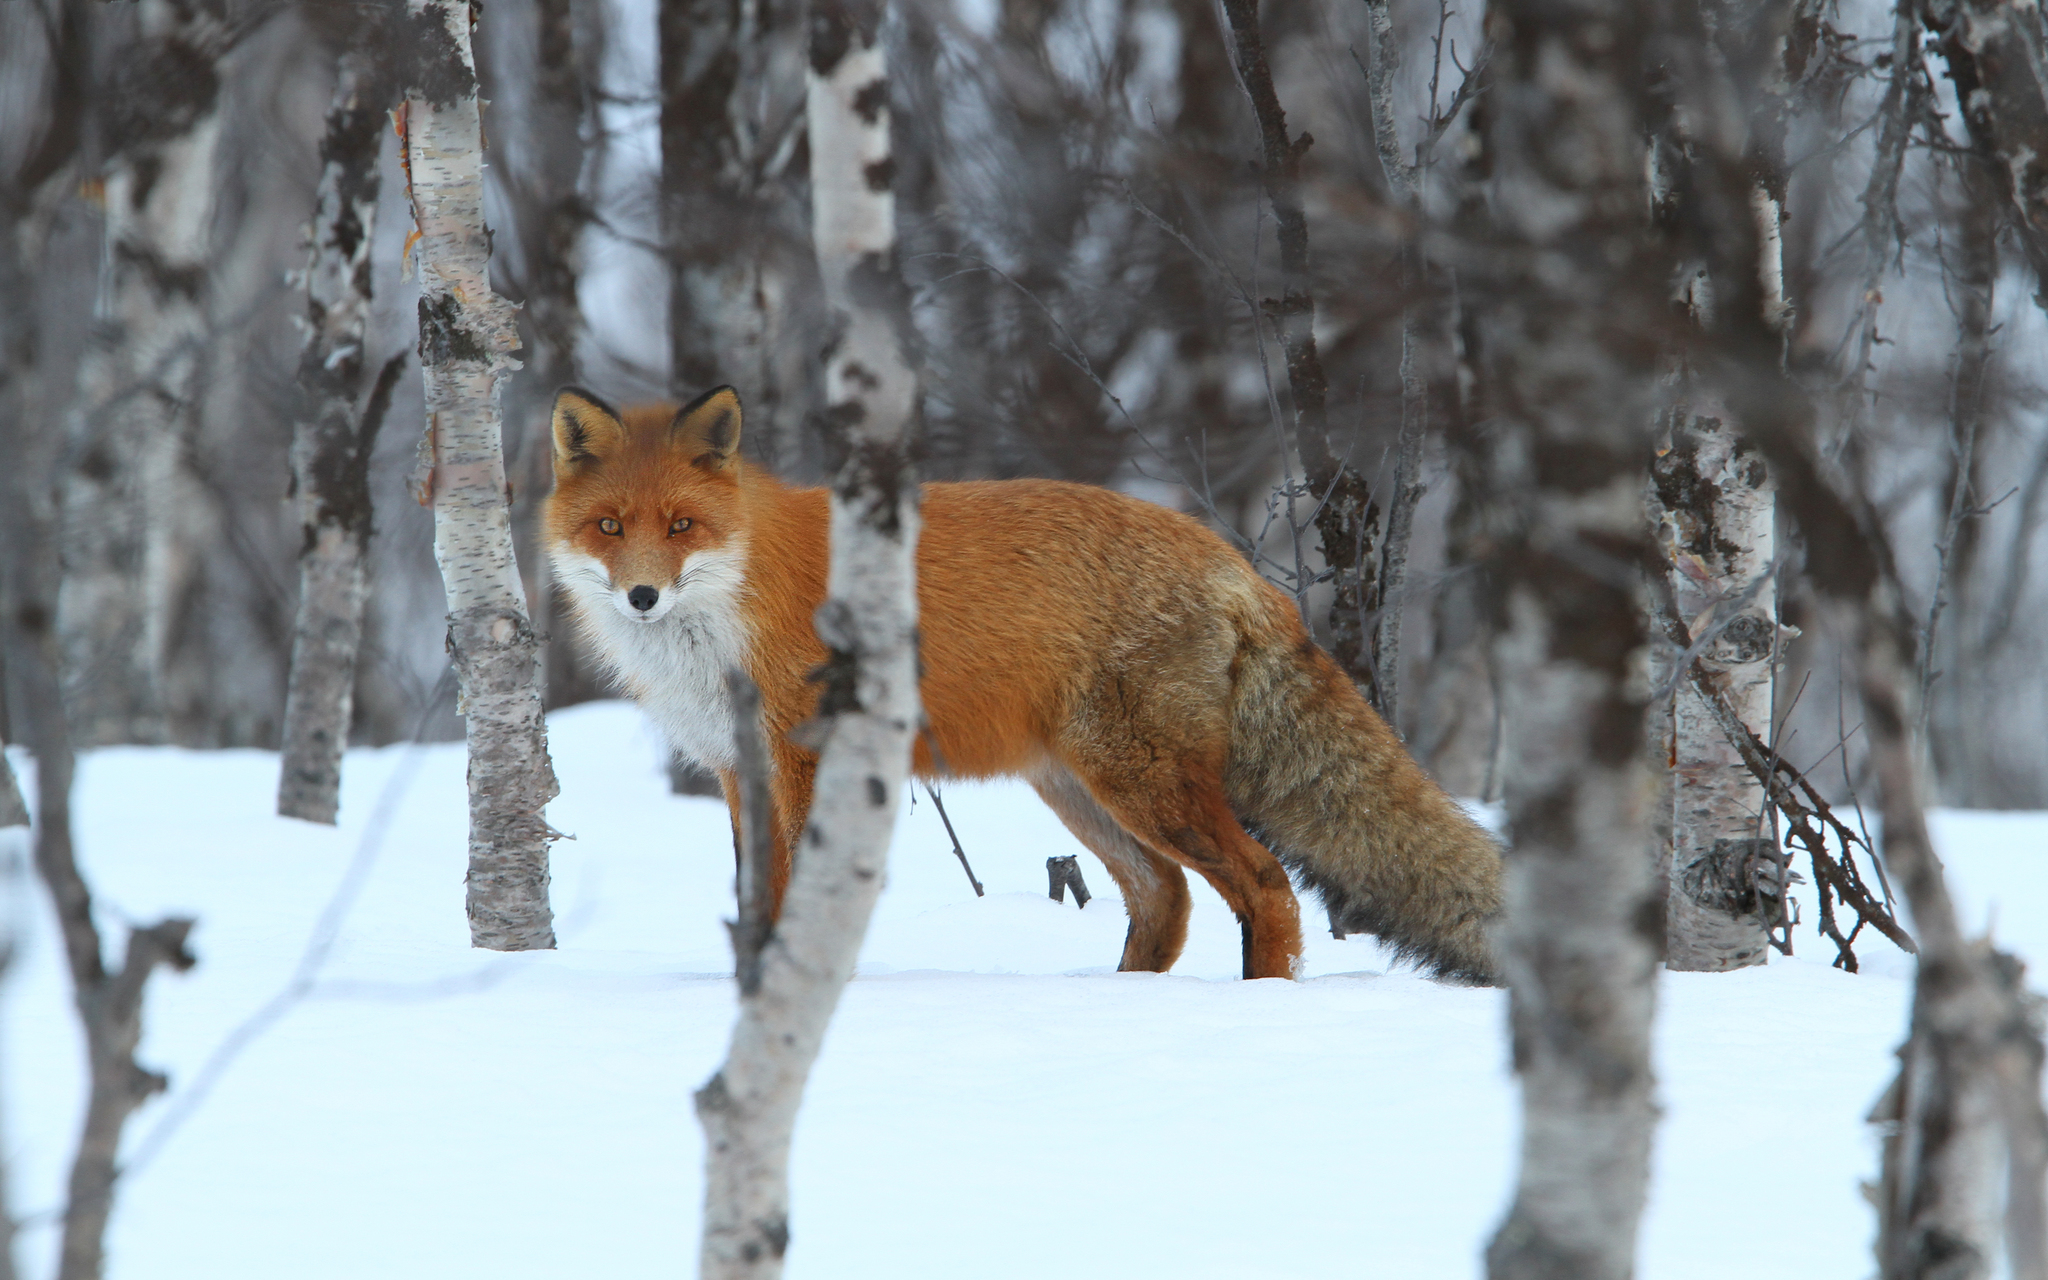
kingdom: Animalia
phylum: Chordata
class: Mammalia
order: Carnivora
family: Canidae
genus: Vulpes
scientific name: Vulpes vulpes
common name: Red fox
